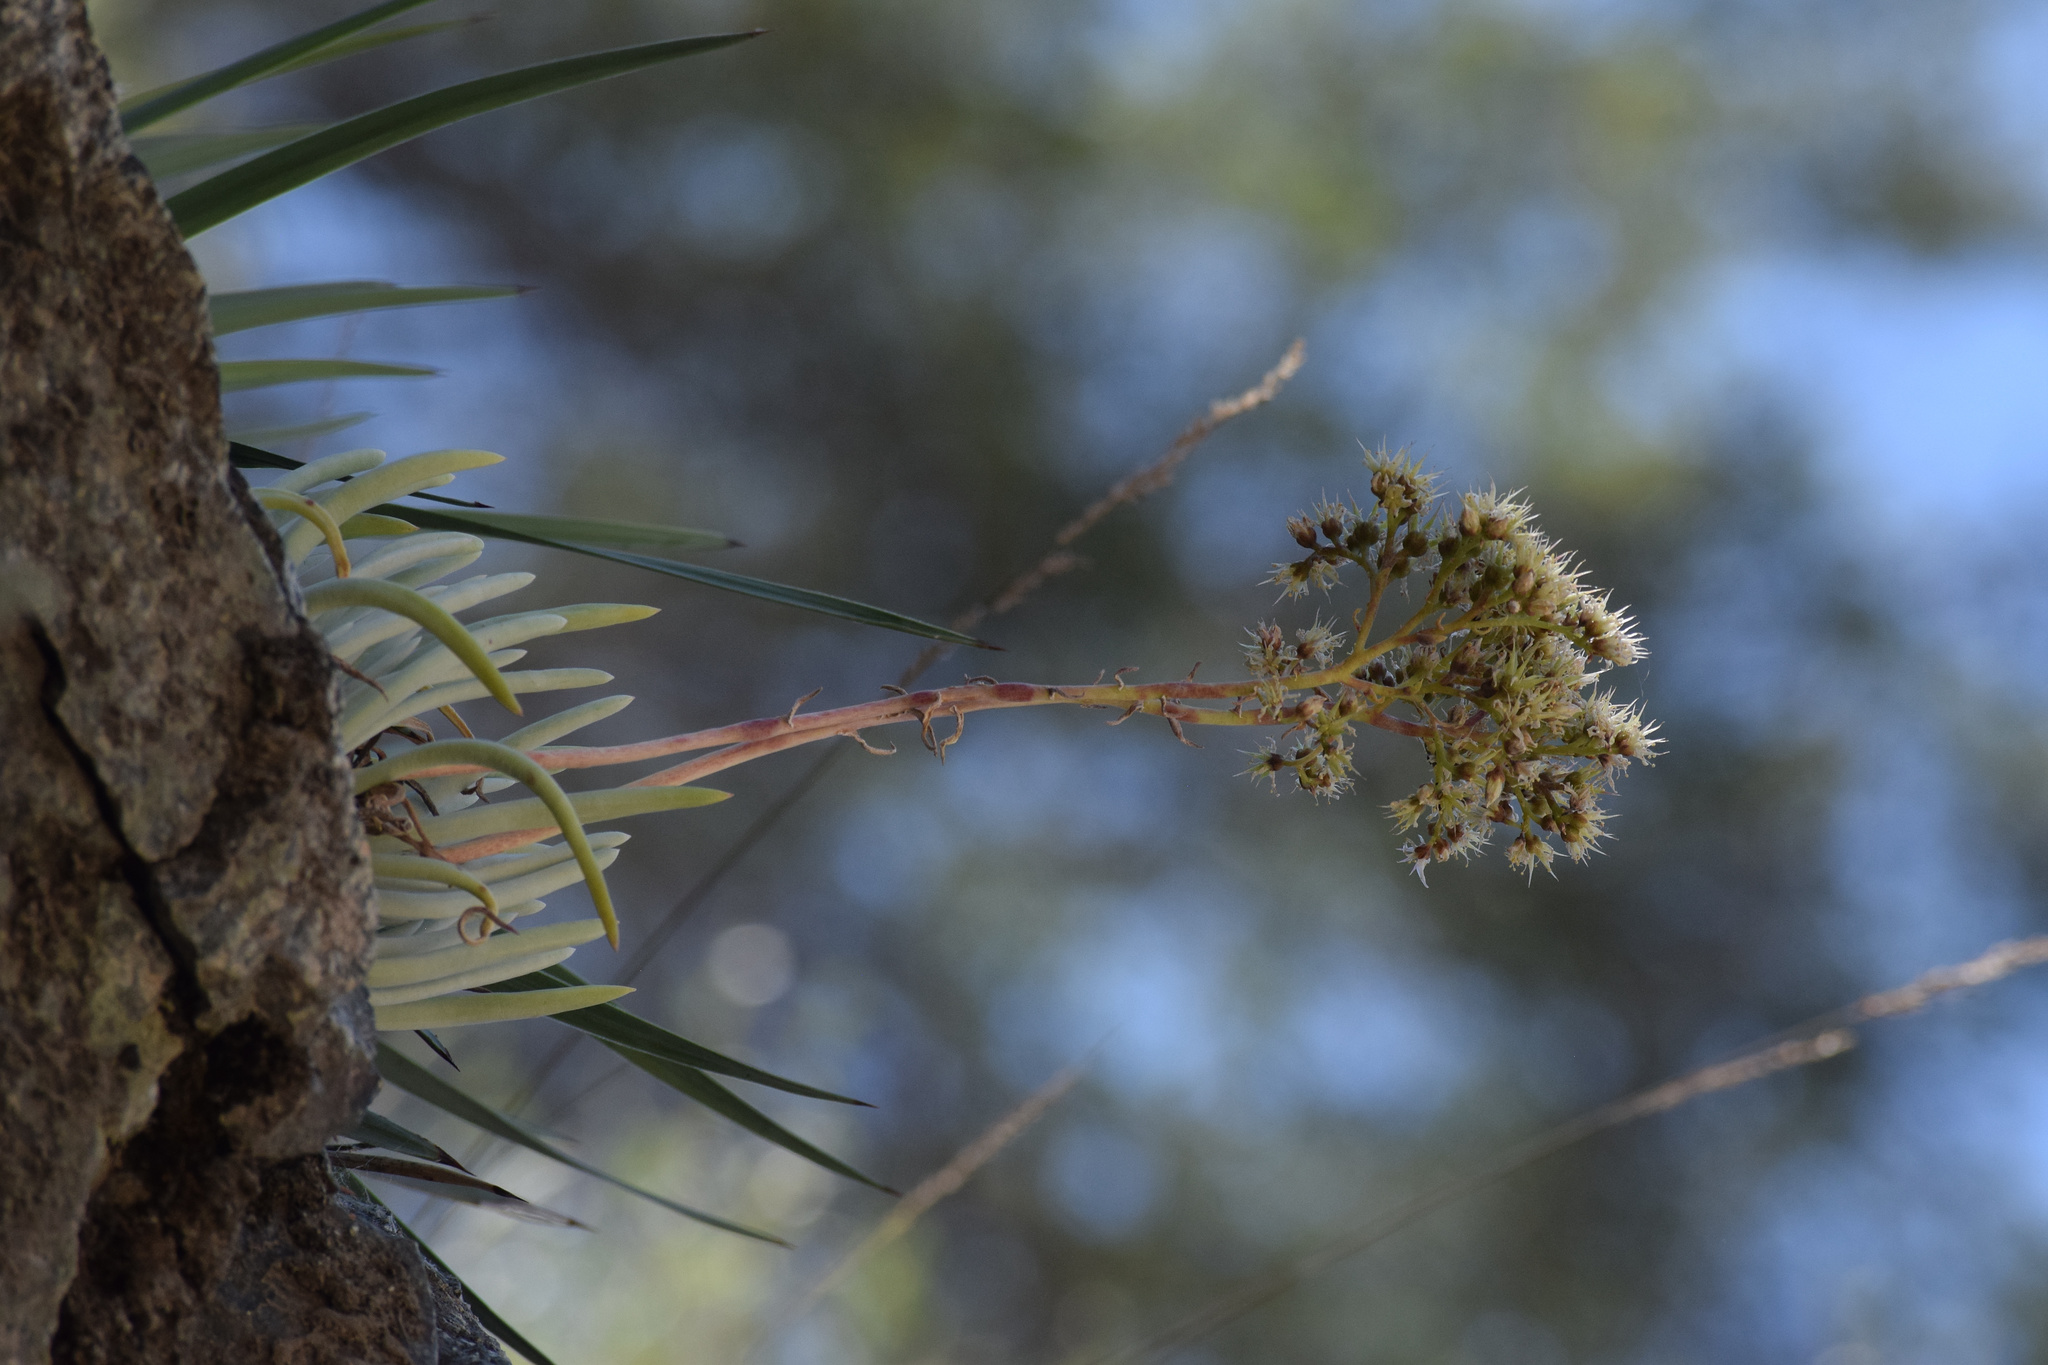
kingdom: Plantae
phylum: Tracheophyta
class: Magnoliopsida
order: Saxifragales
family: Crassulaceae
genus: Dudleya
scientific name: Dudleya densiflora
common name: San gabriel mountains dudleya
